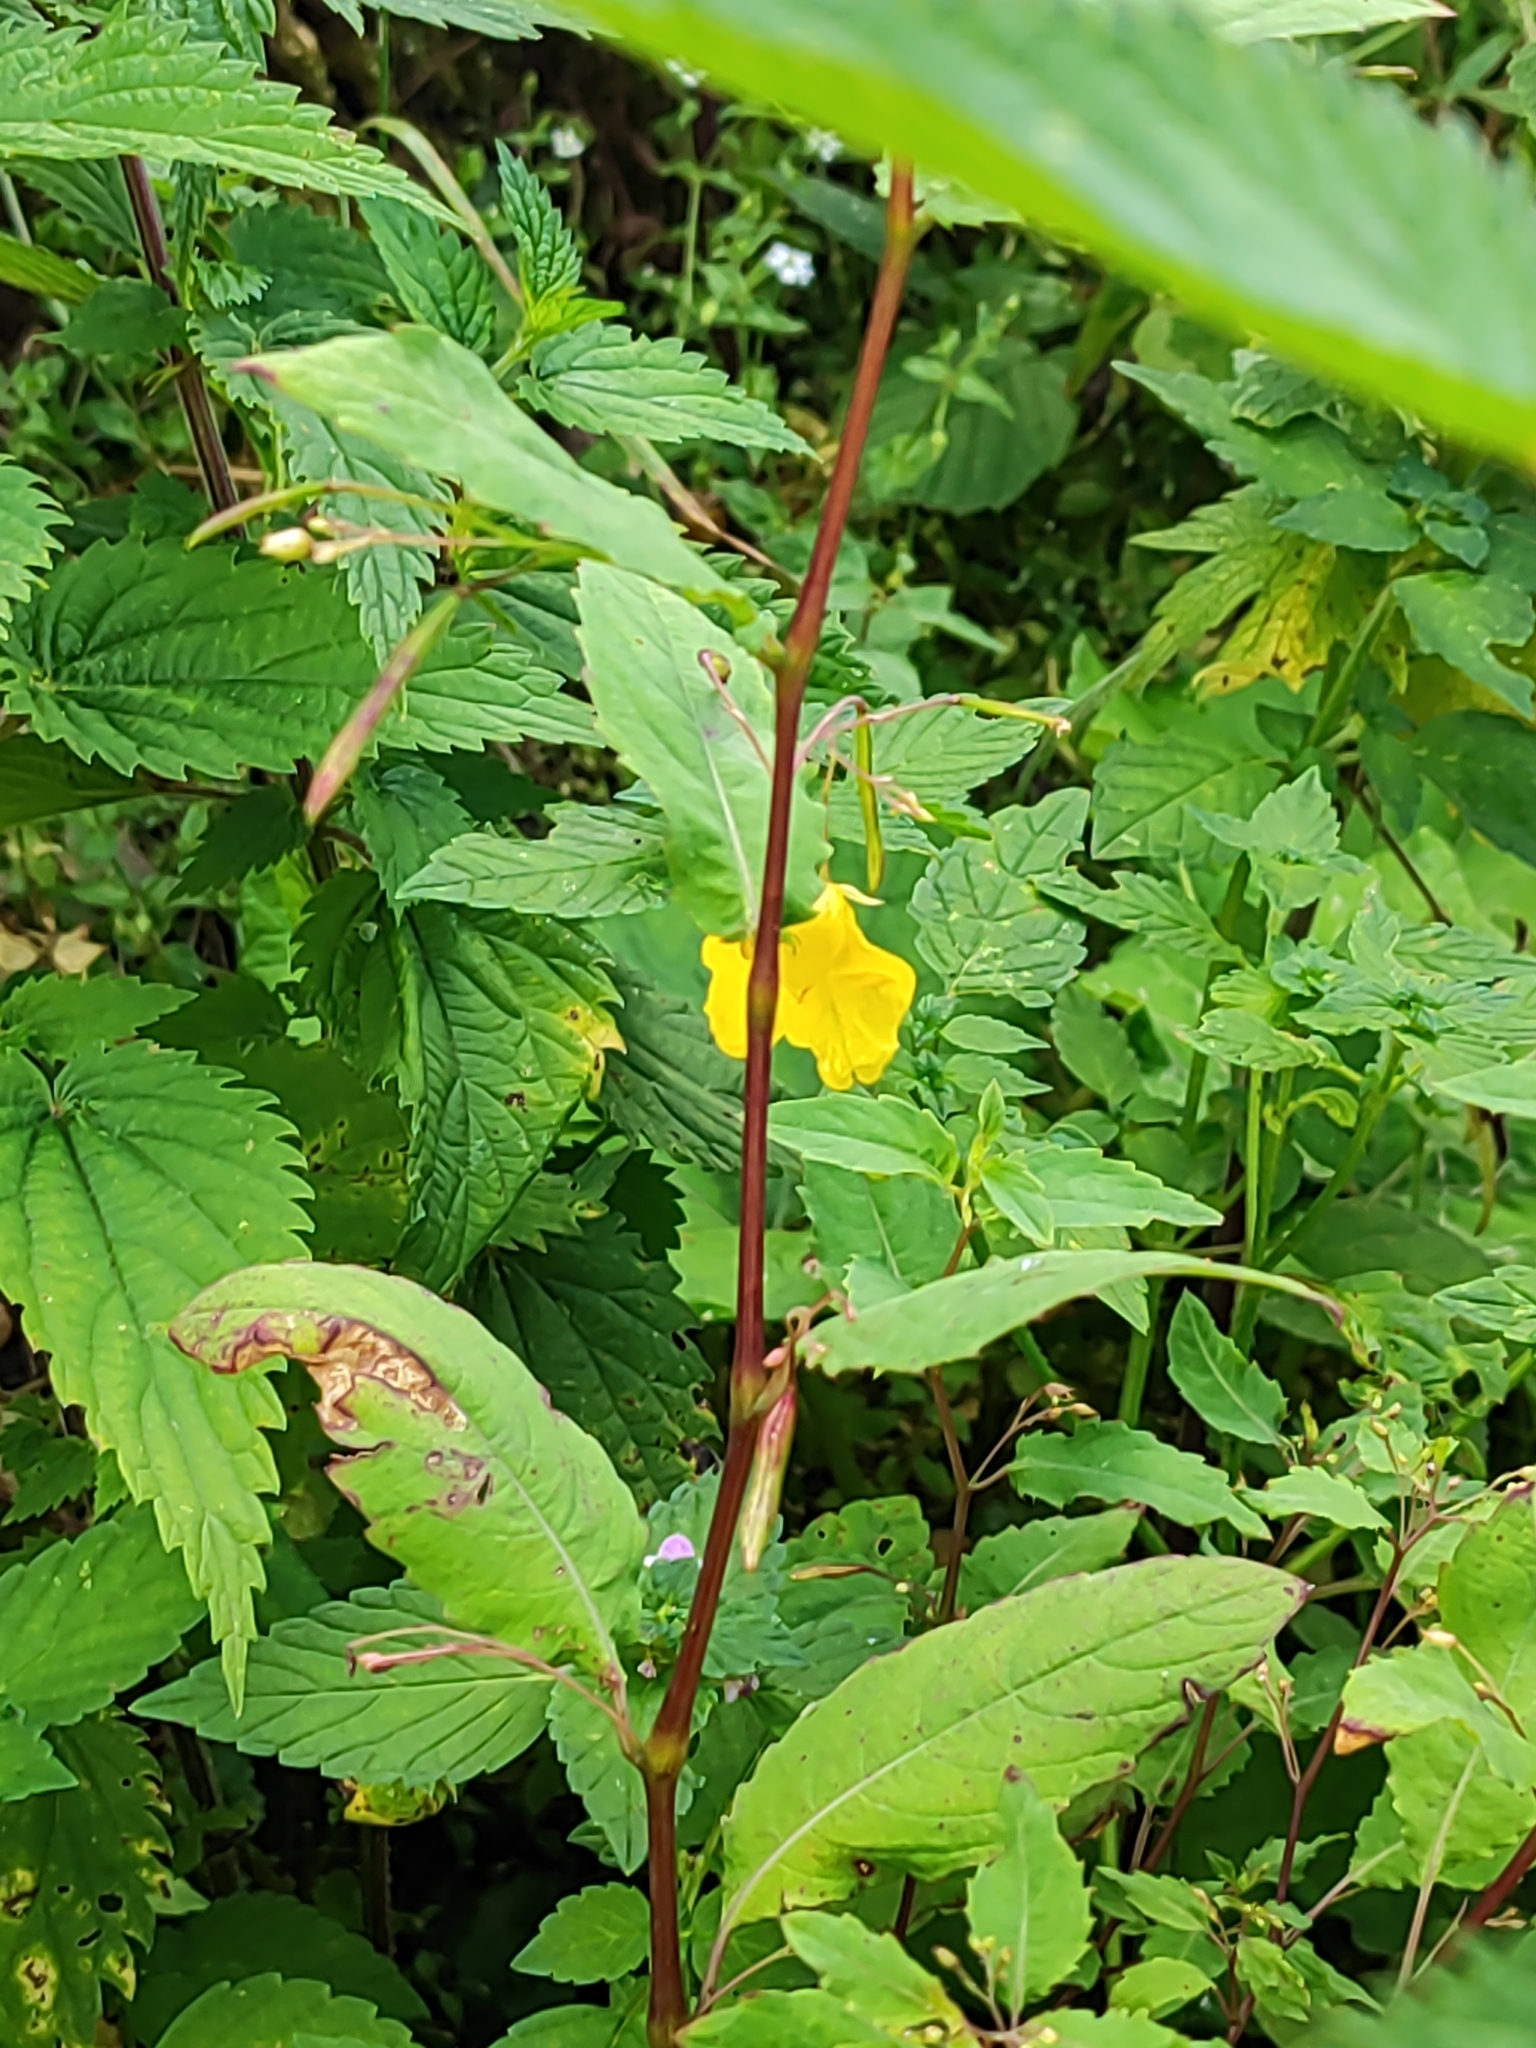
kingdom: Plantae
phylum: Tracheophyta
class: Magnoliopsida
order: Ericales
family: Balsaminaceae
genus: Impatiens
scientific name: Impatiens noli-tangere
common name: Touch-me-not balsam
